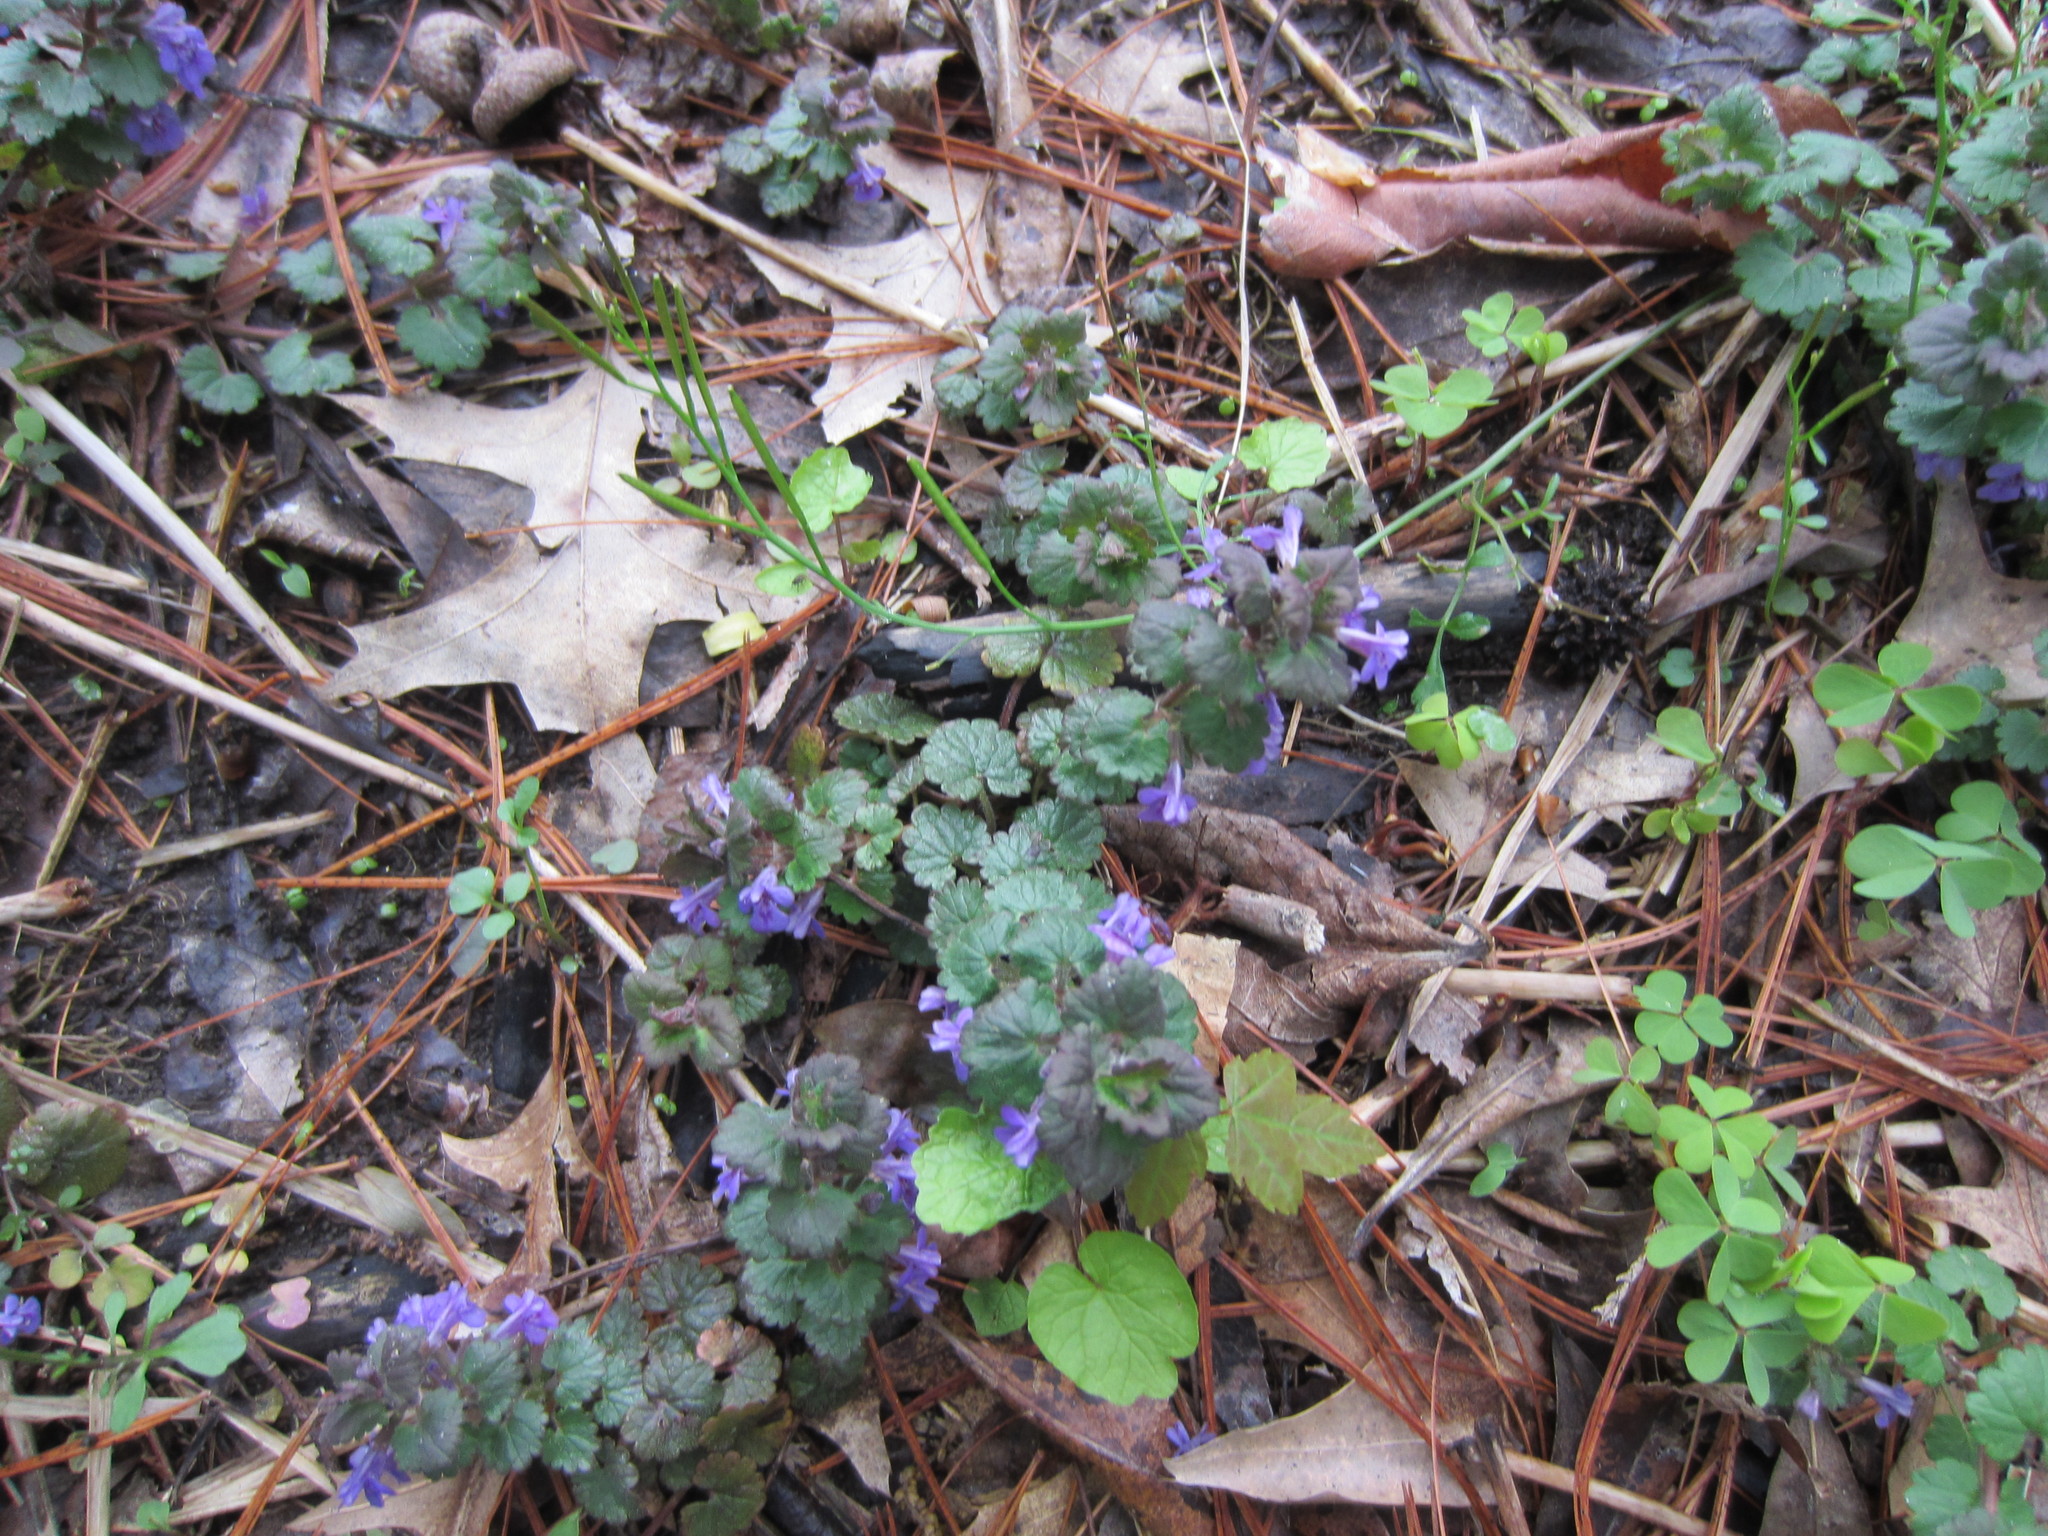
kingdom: Plantae
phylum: Tracheophyta
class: Magnoliopsida
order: Lamiales
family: Lamiaceae
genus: Glechoma
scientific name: Glechoma hederacea
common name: Ground ivy
